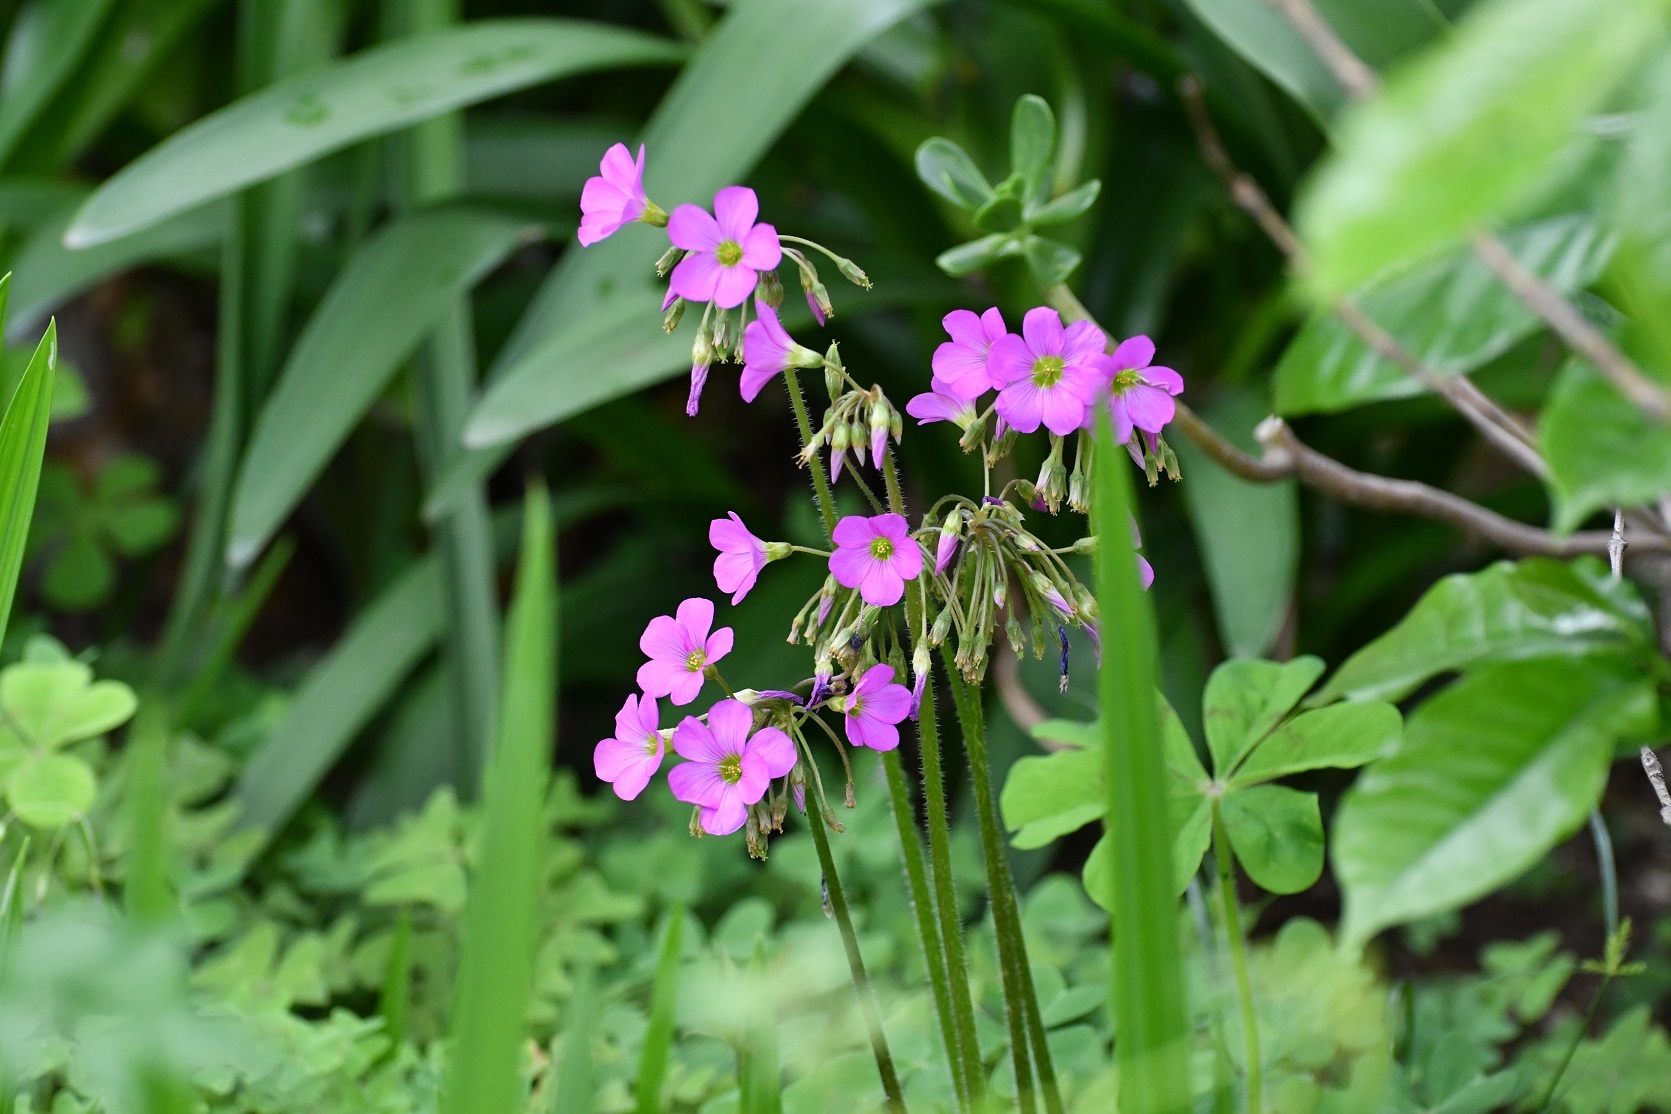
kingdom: Plantae
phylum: Tracheophyta
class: Magnoliopsida
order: Oxalidales
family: Oxalidaceae
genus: Oxalis
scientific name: Oxalis nelsonii
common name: Sorrel
